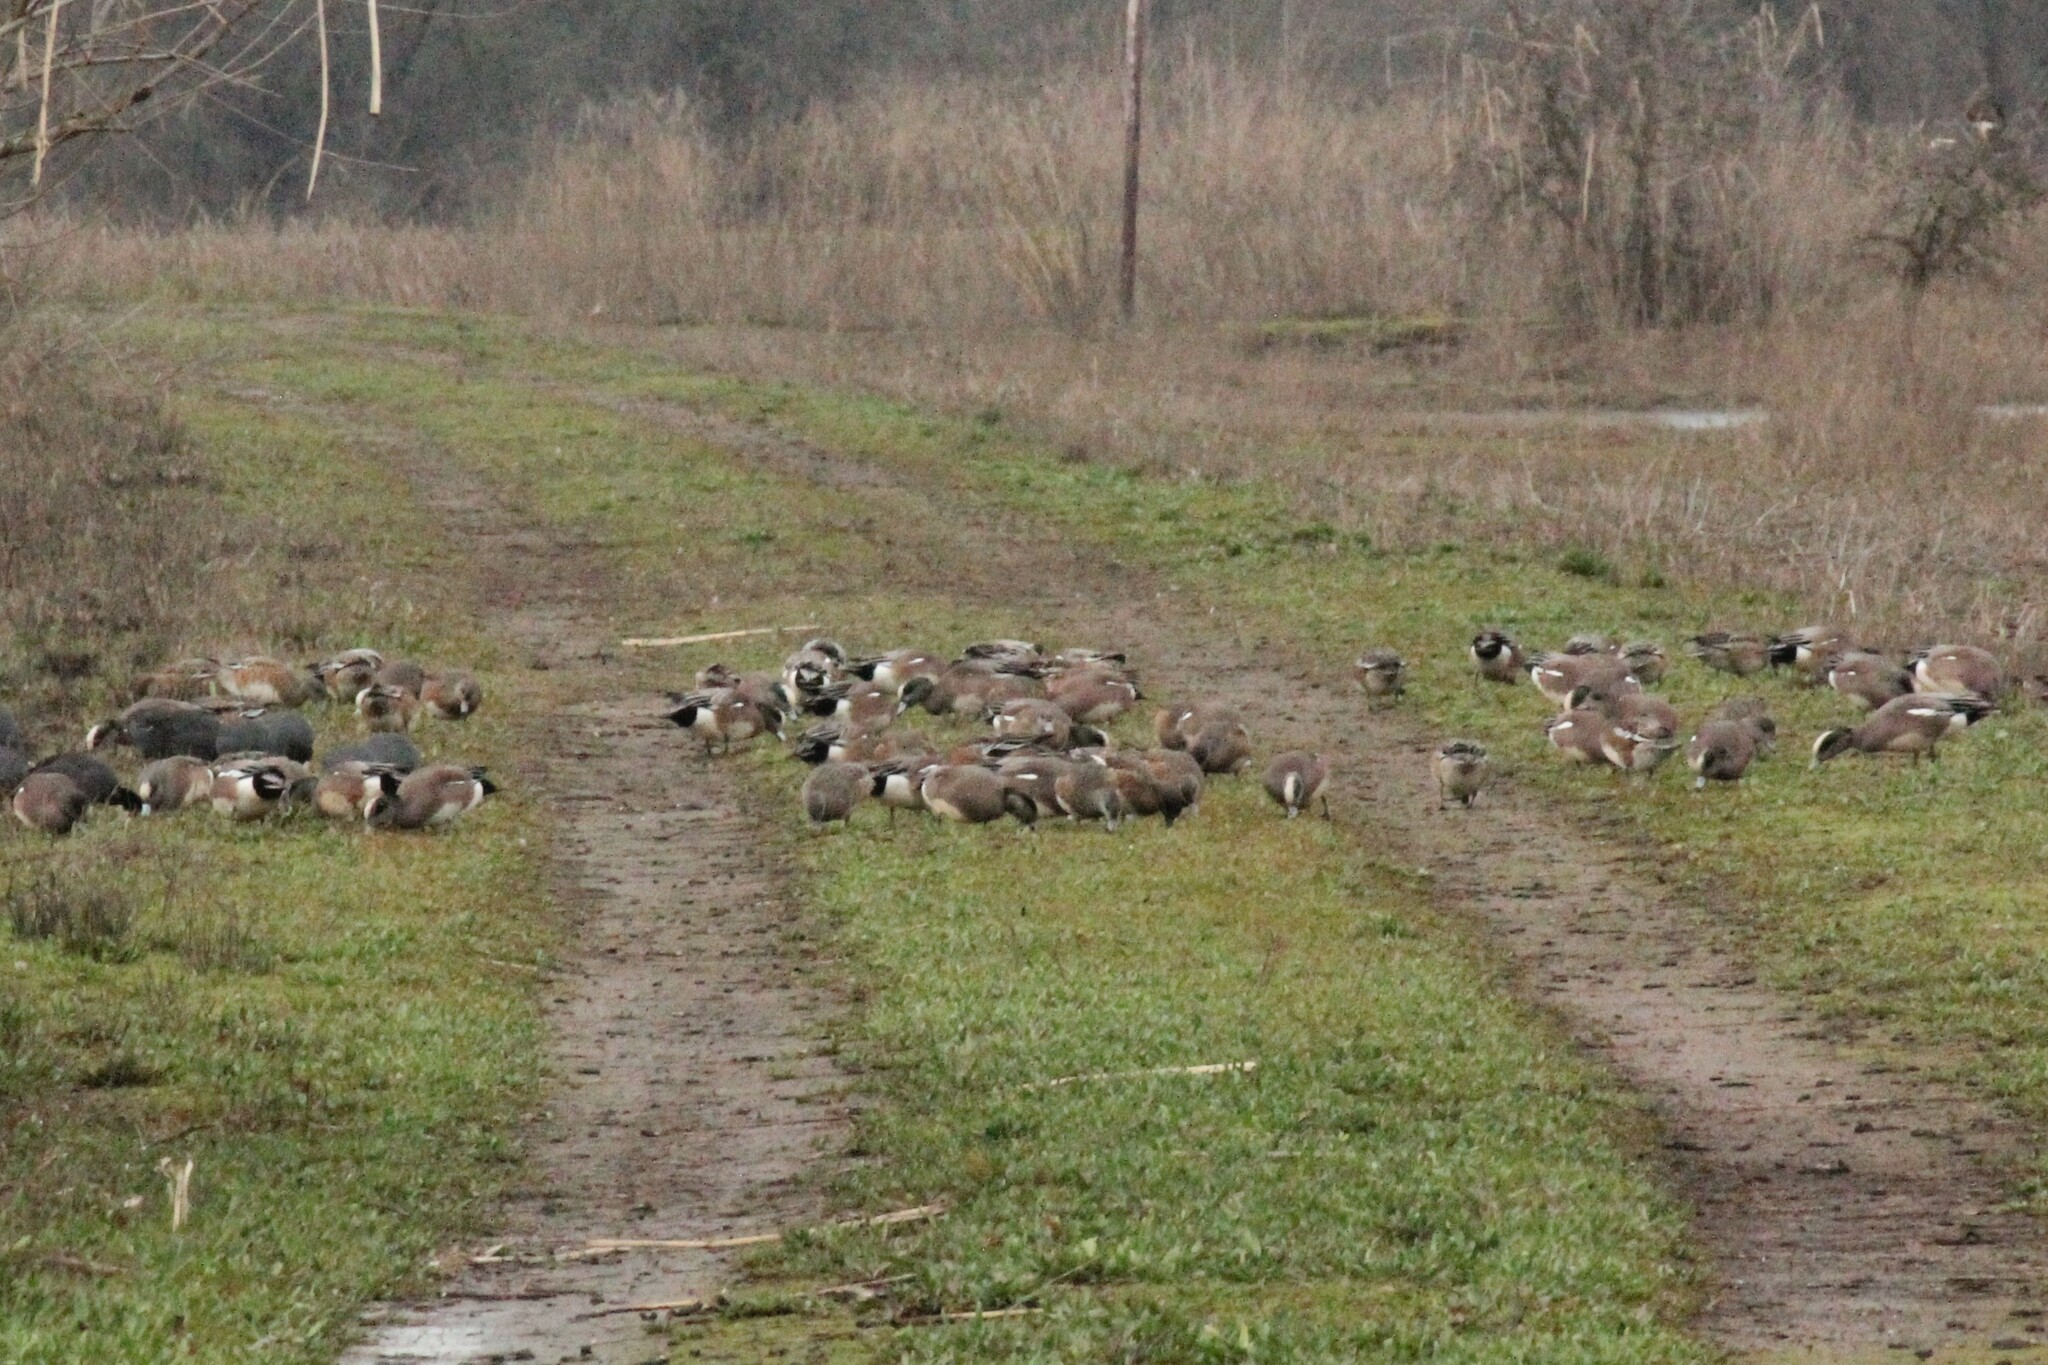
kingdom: Animalia
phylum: Chordata
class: Aves
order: Anseriformes
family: Anatidae
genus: Mareca
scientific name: Mareca americana
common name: American wigeon
